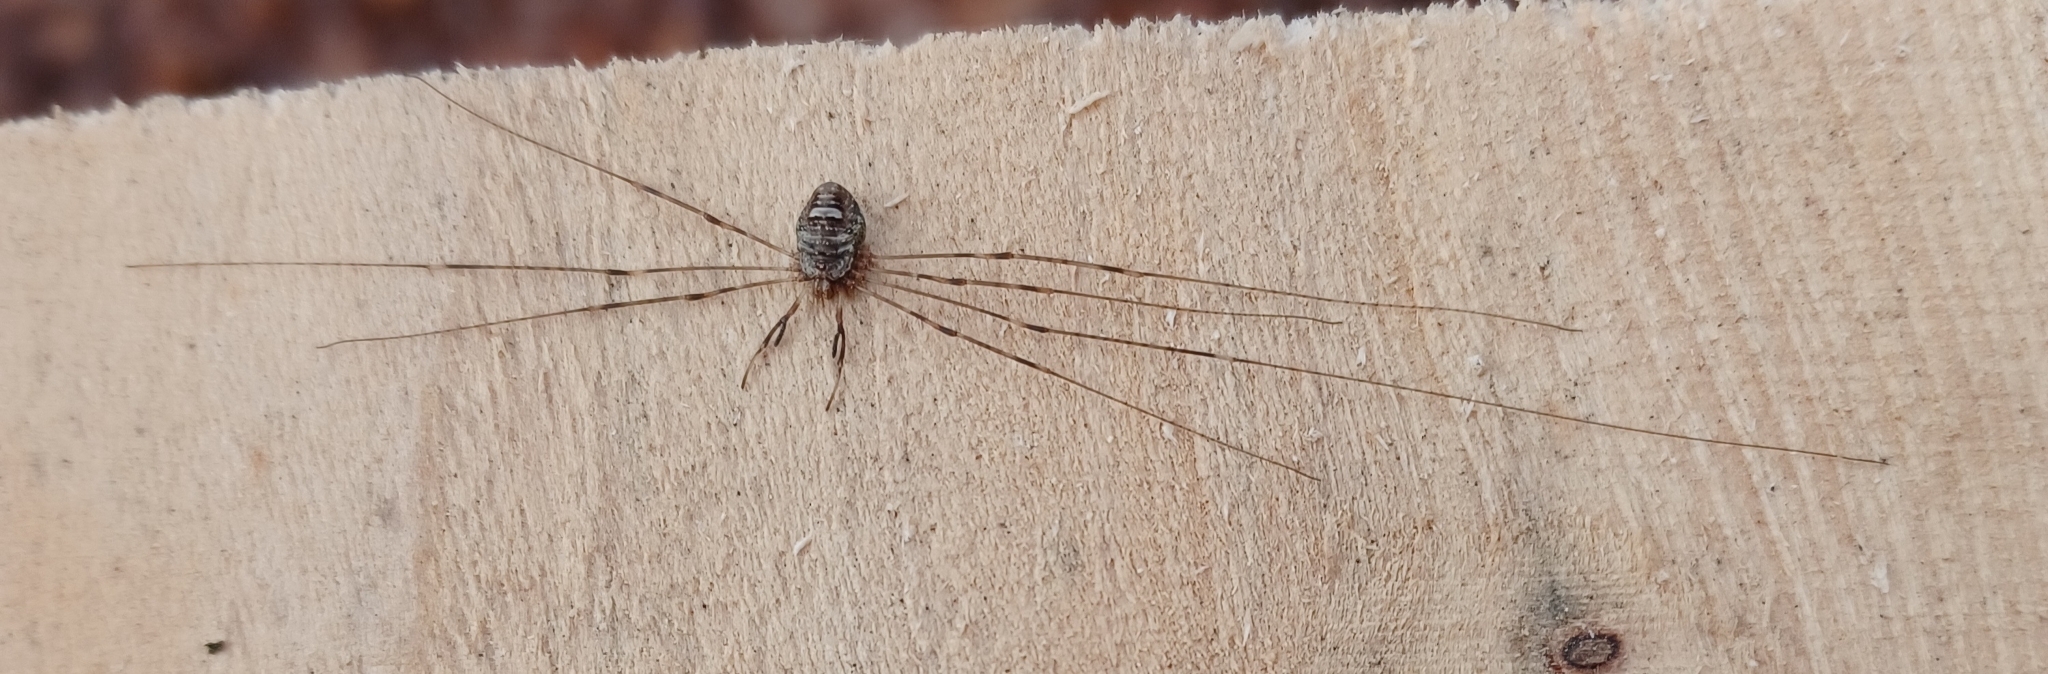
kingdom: Animalia
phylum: Arthropoda
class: Arachnida
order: Opiliones
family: Phalangiidae
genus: Dicranopalpus
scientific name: Dicranopalpus ramosus
